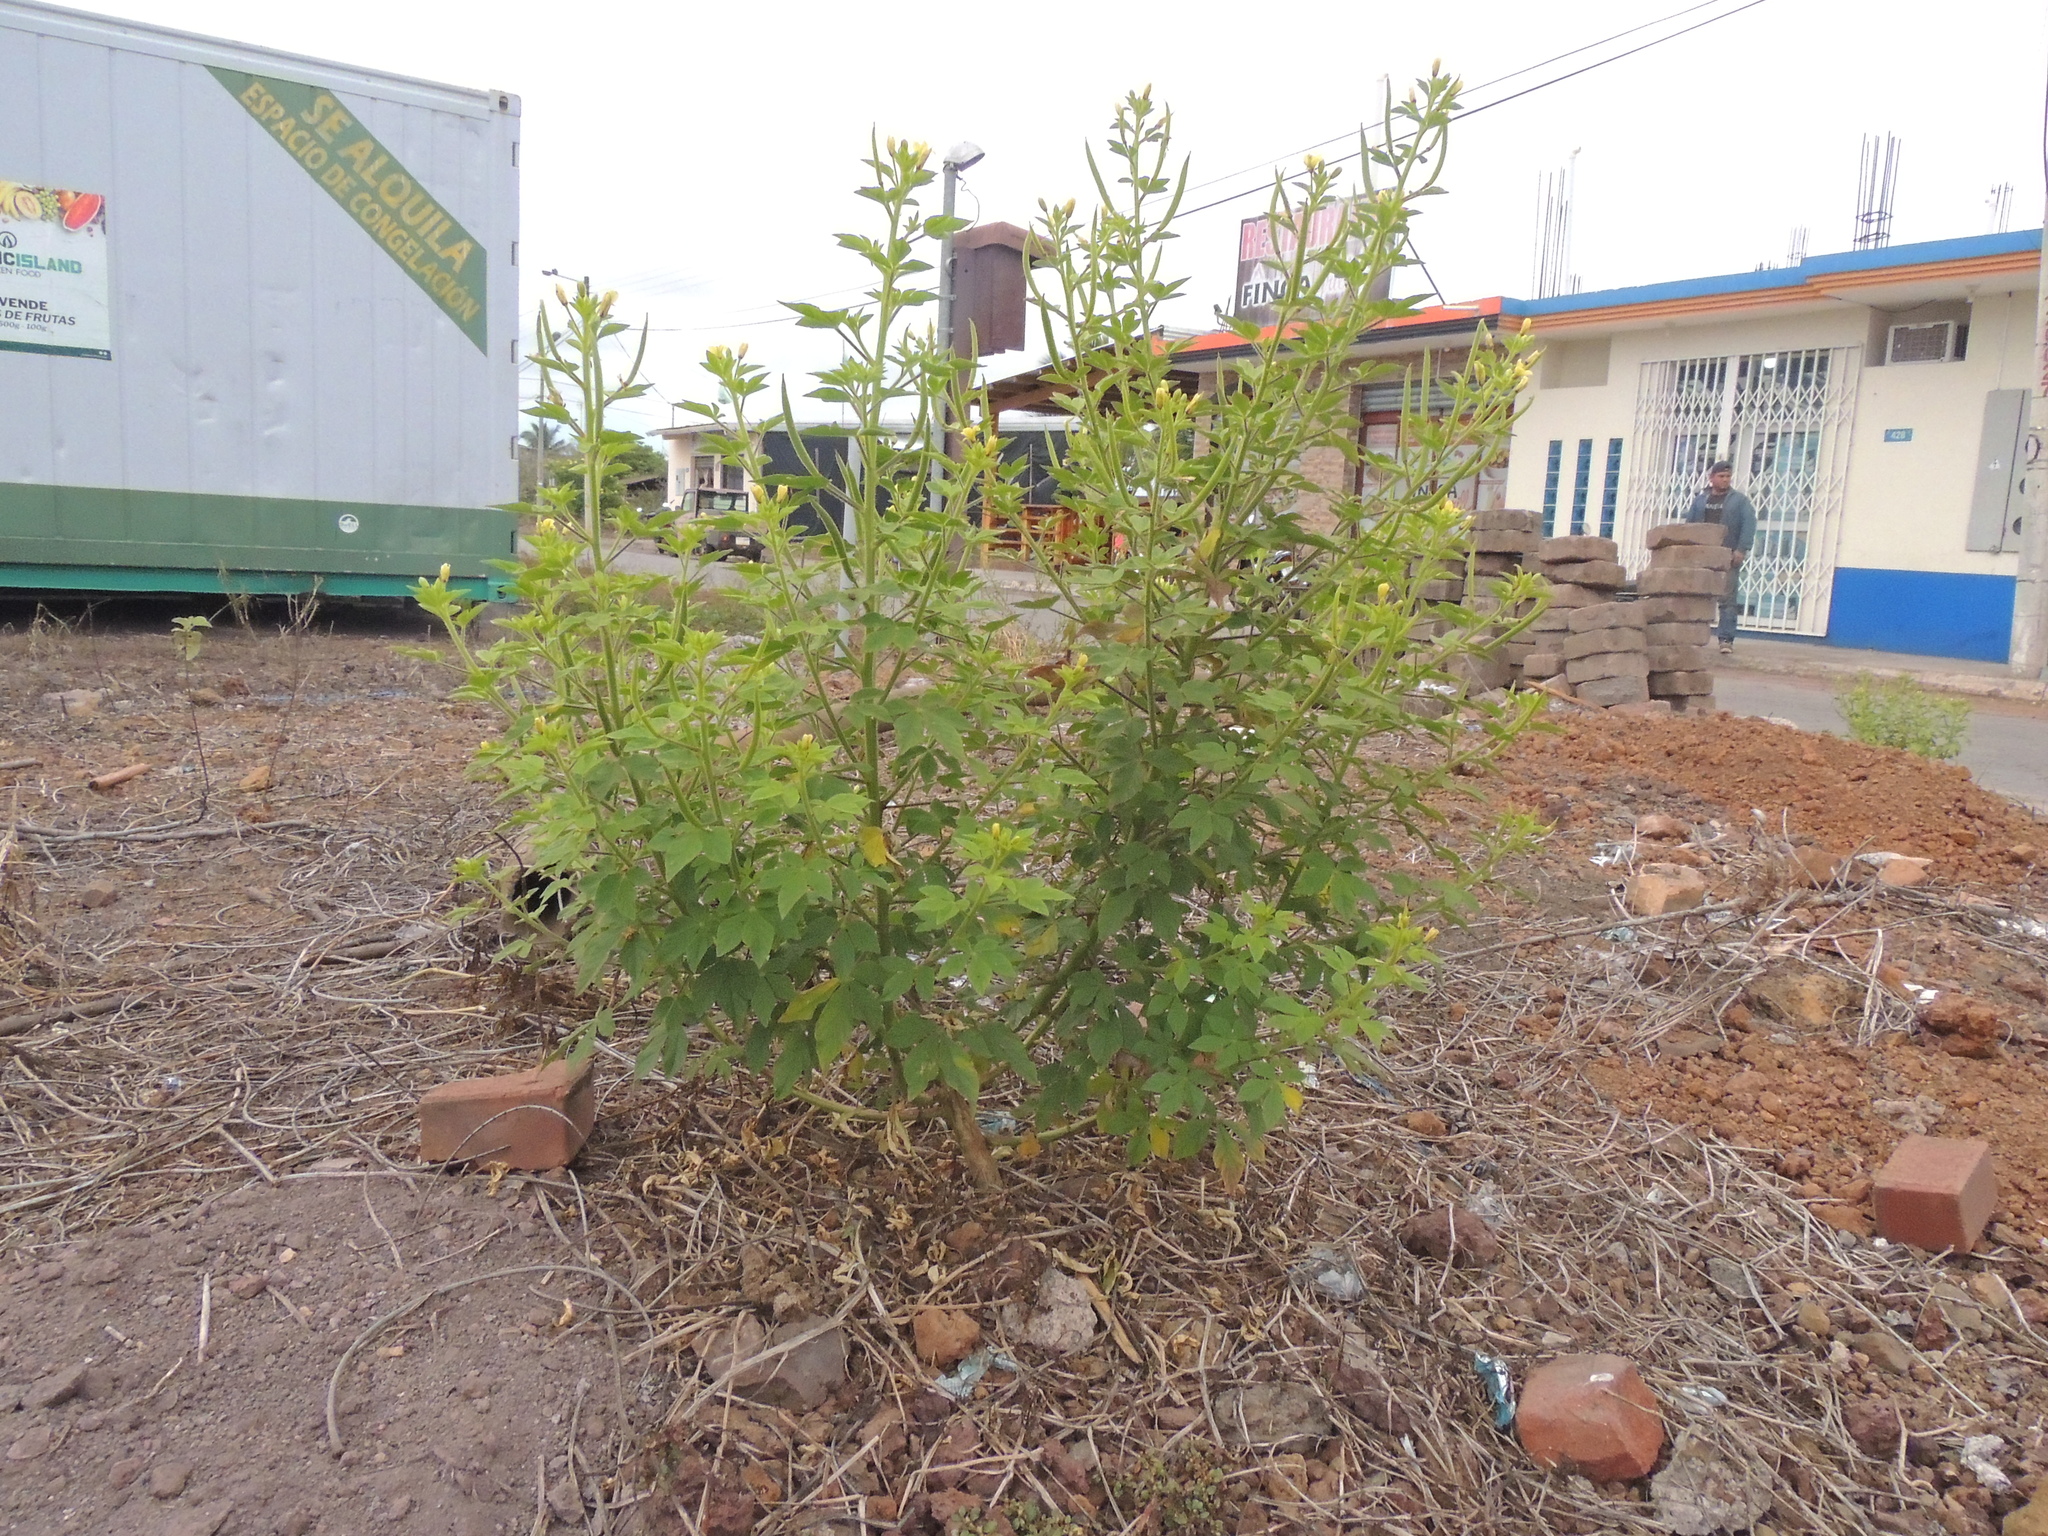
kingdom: Plantae
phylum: Tracheophyta
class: Magnoliopsida
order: Brassicales
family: Cleomaceae
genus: Arivela
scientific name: Arivela viscosa
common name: Asian spiderflower
